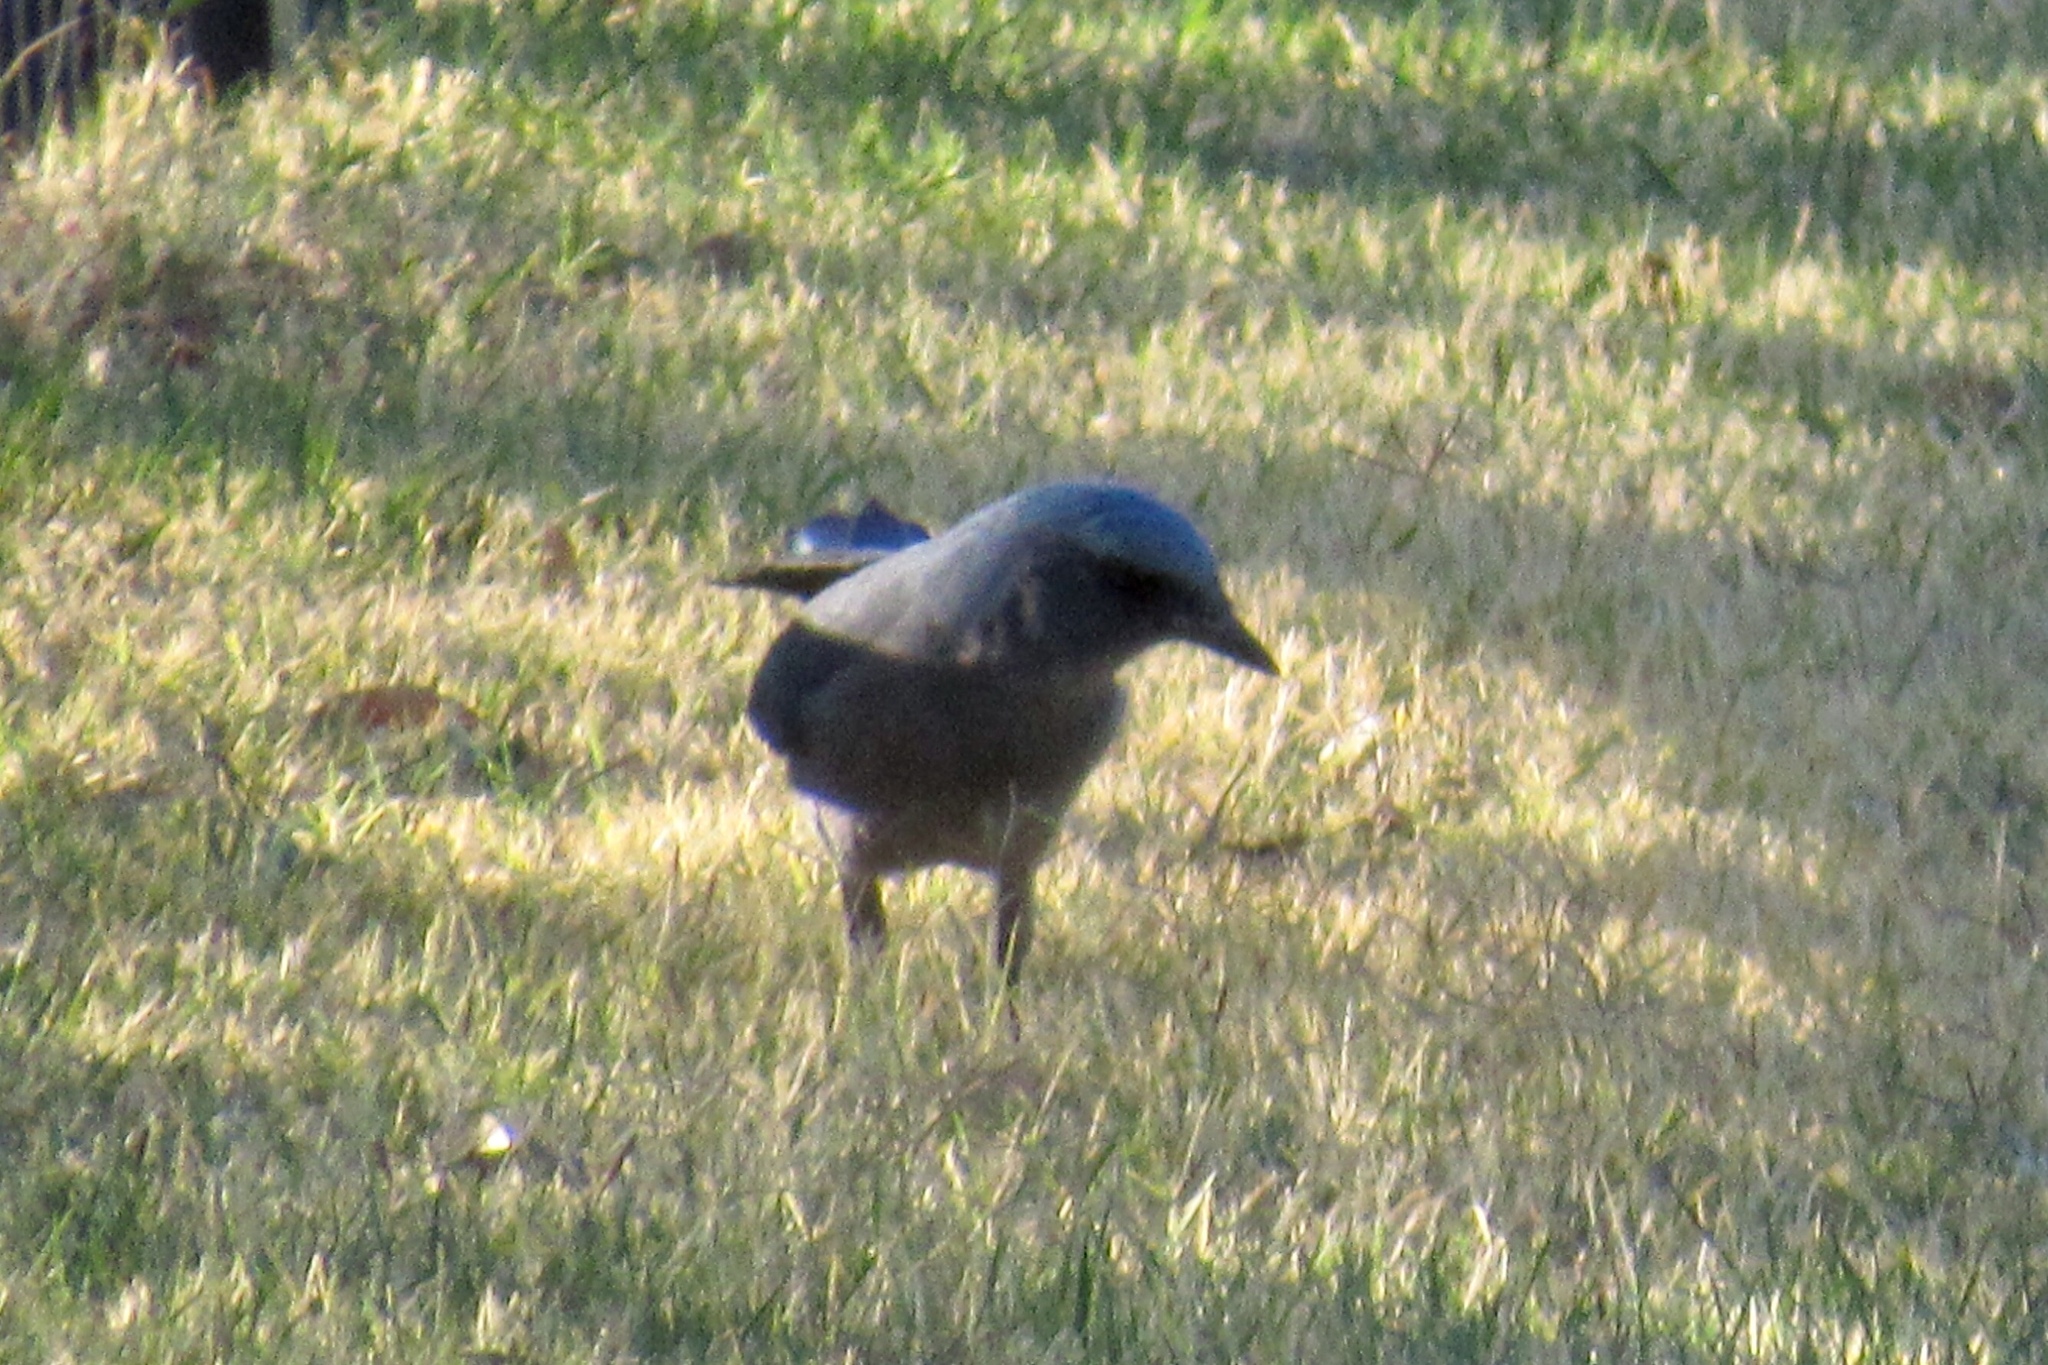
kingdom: Animalia
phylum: Chordata
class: Aves
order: Passeriformes
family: Corvidae
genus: Aphelocoma
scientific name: Aphelocoma wollweberi
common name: Mexican jay
